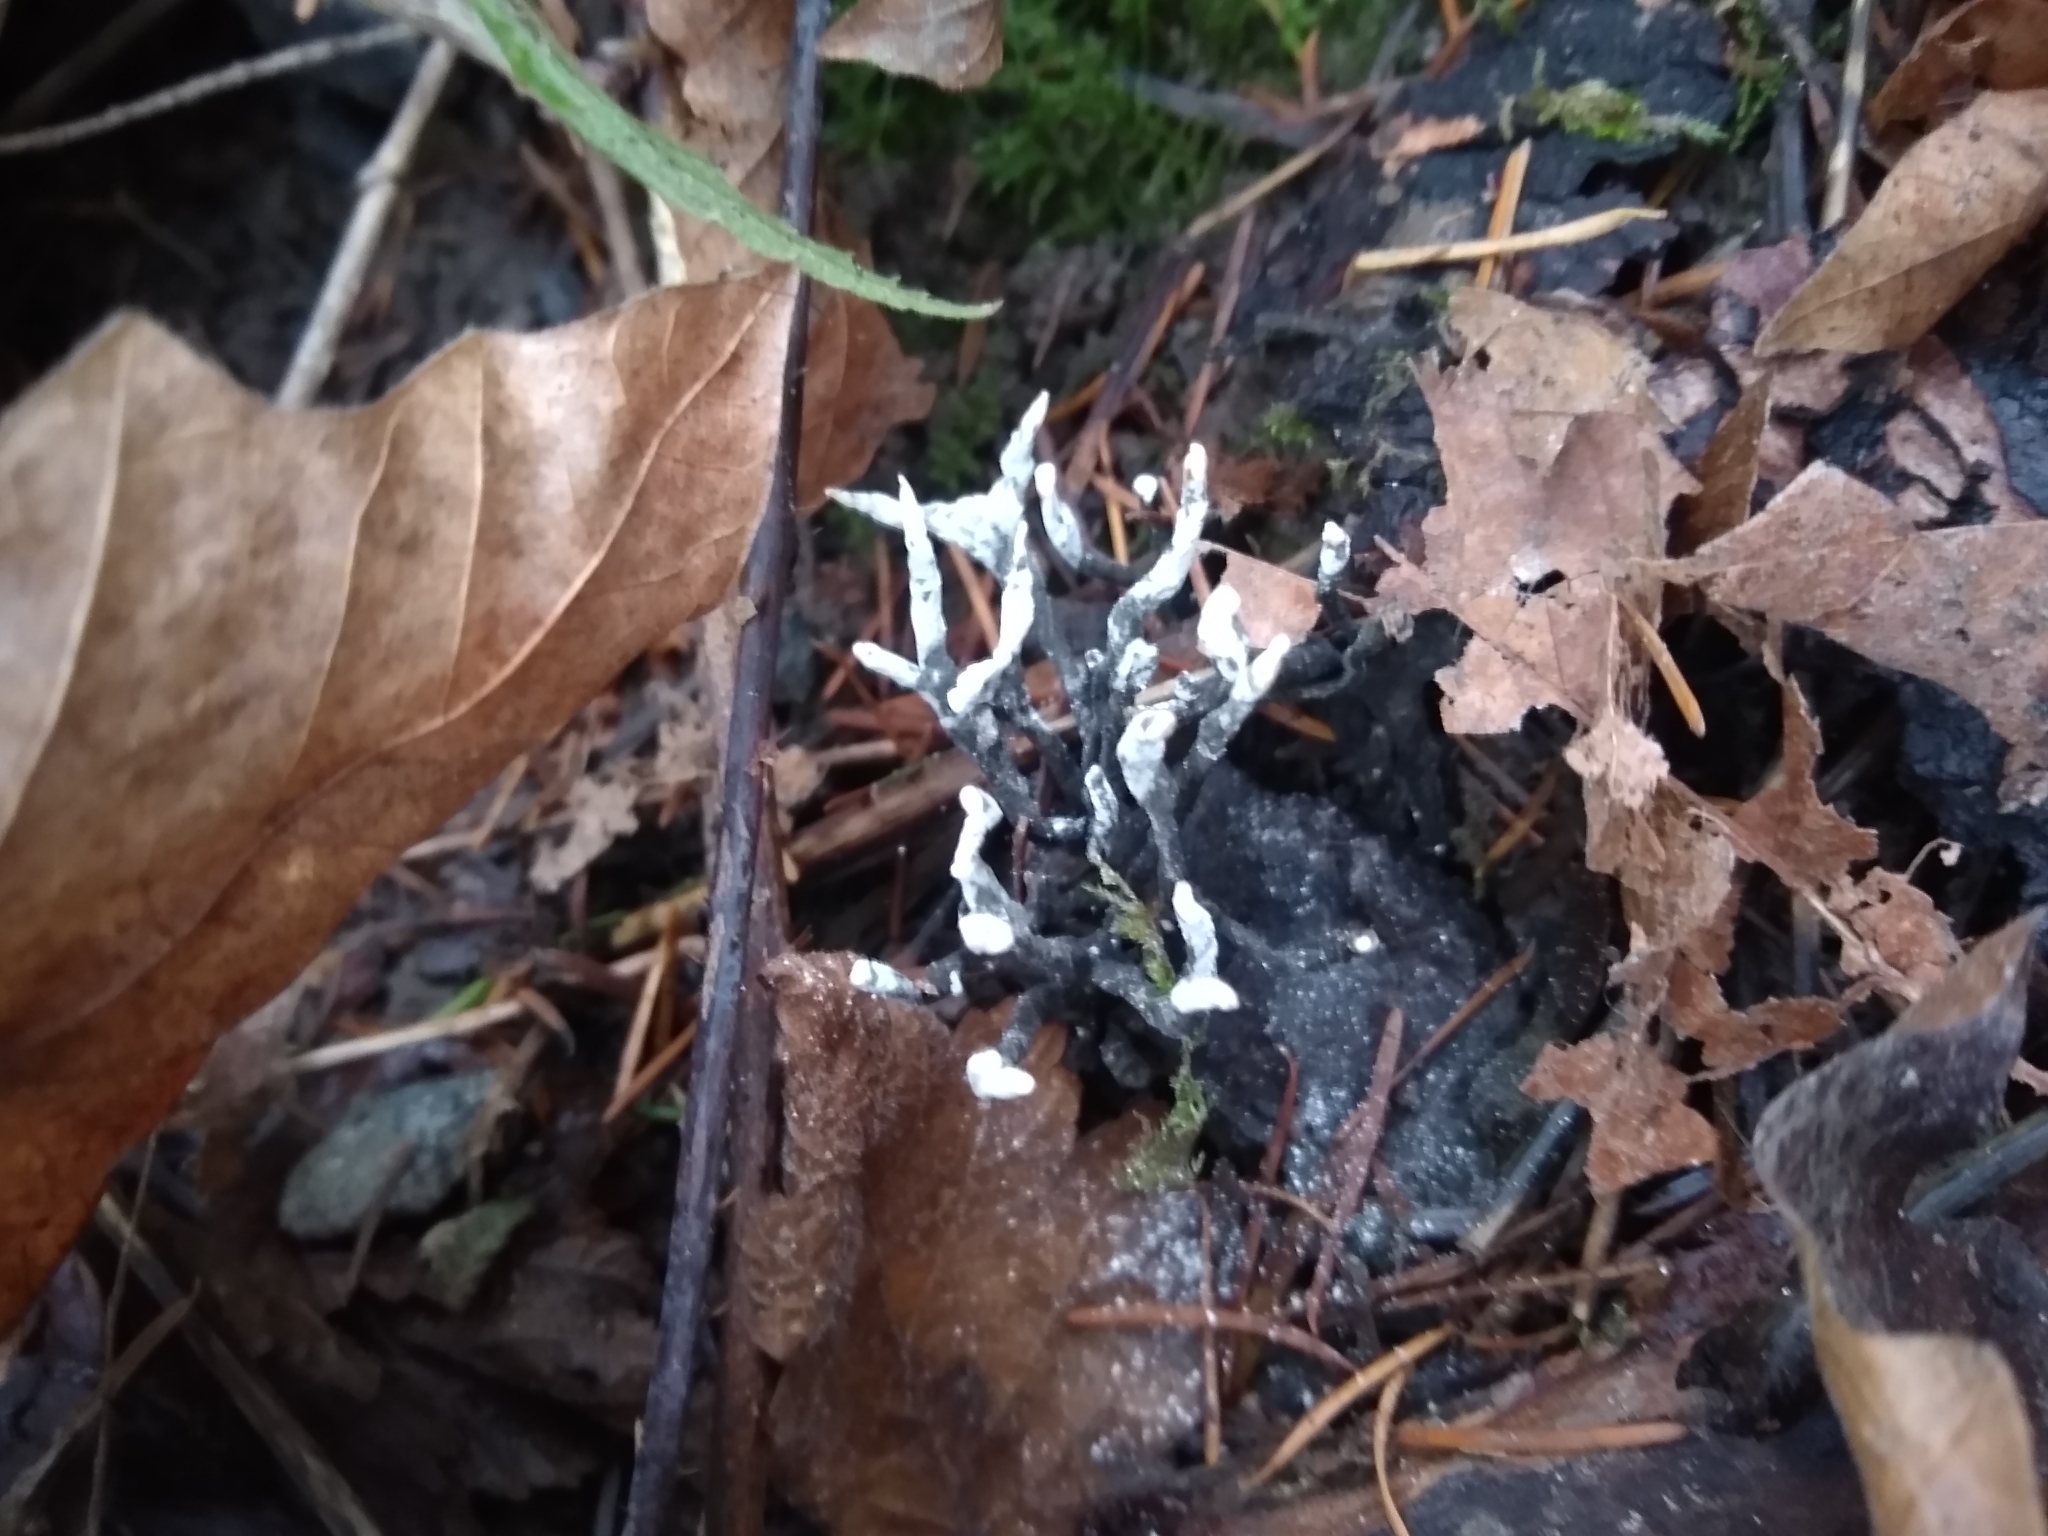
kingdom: Fungi
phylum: Ascomycota
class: Sordariomycetes
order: Xylariales
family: Xylariaceae
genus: Xylaria
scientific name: Xylaria hypoxylon
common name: Candle-snuff fungus
